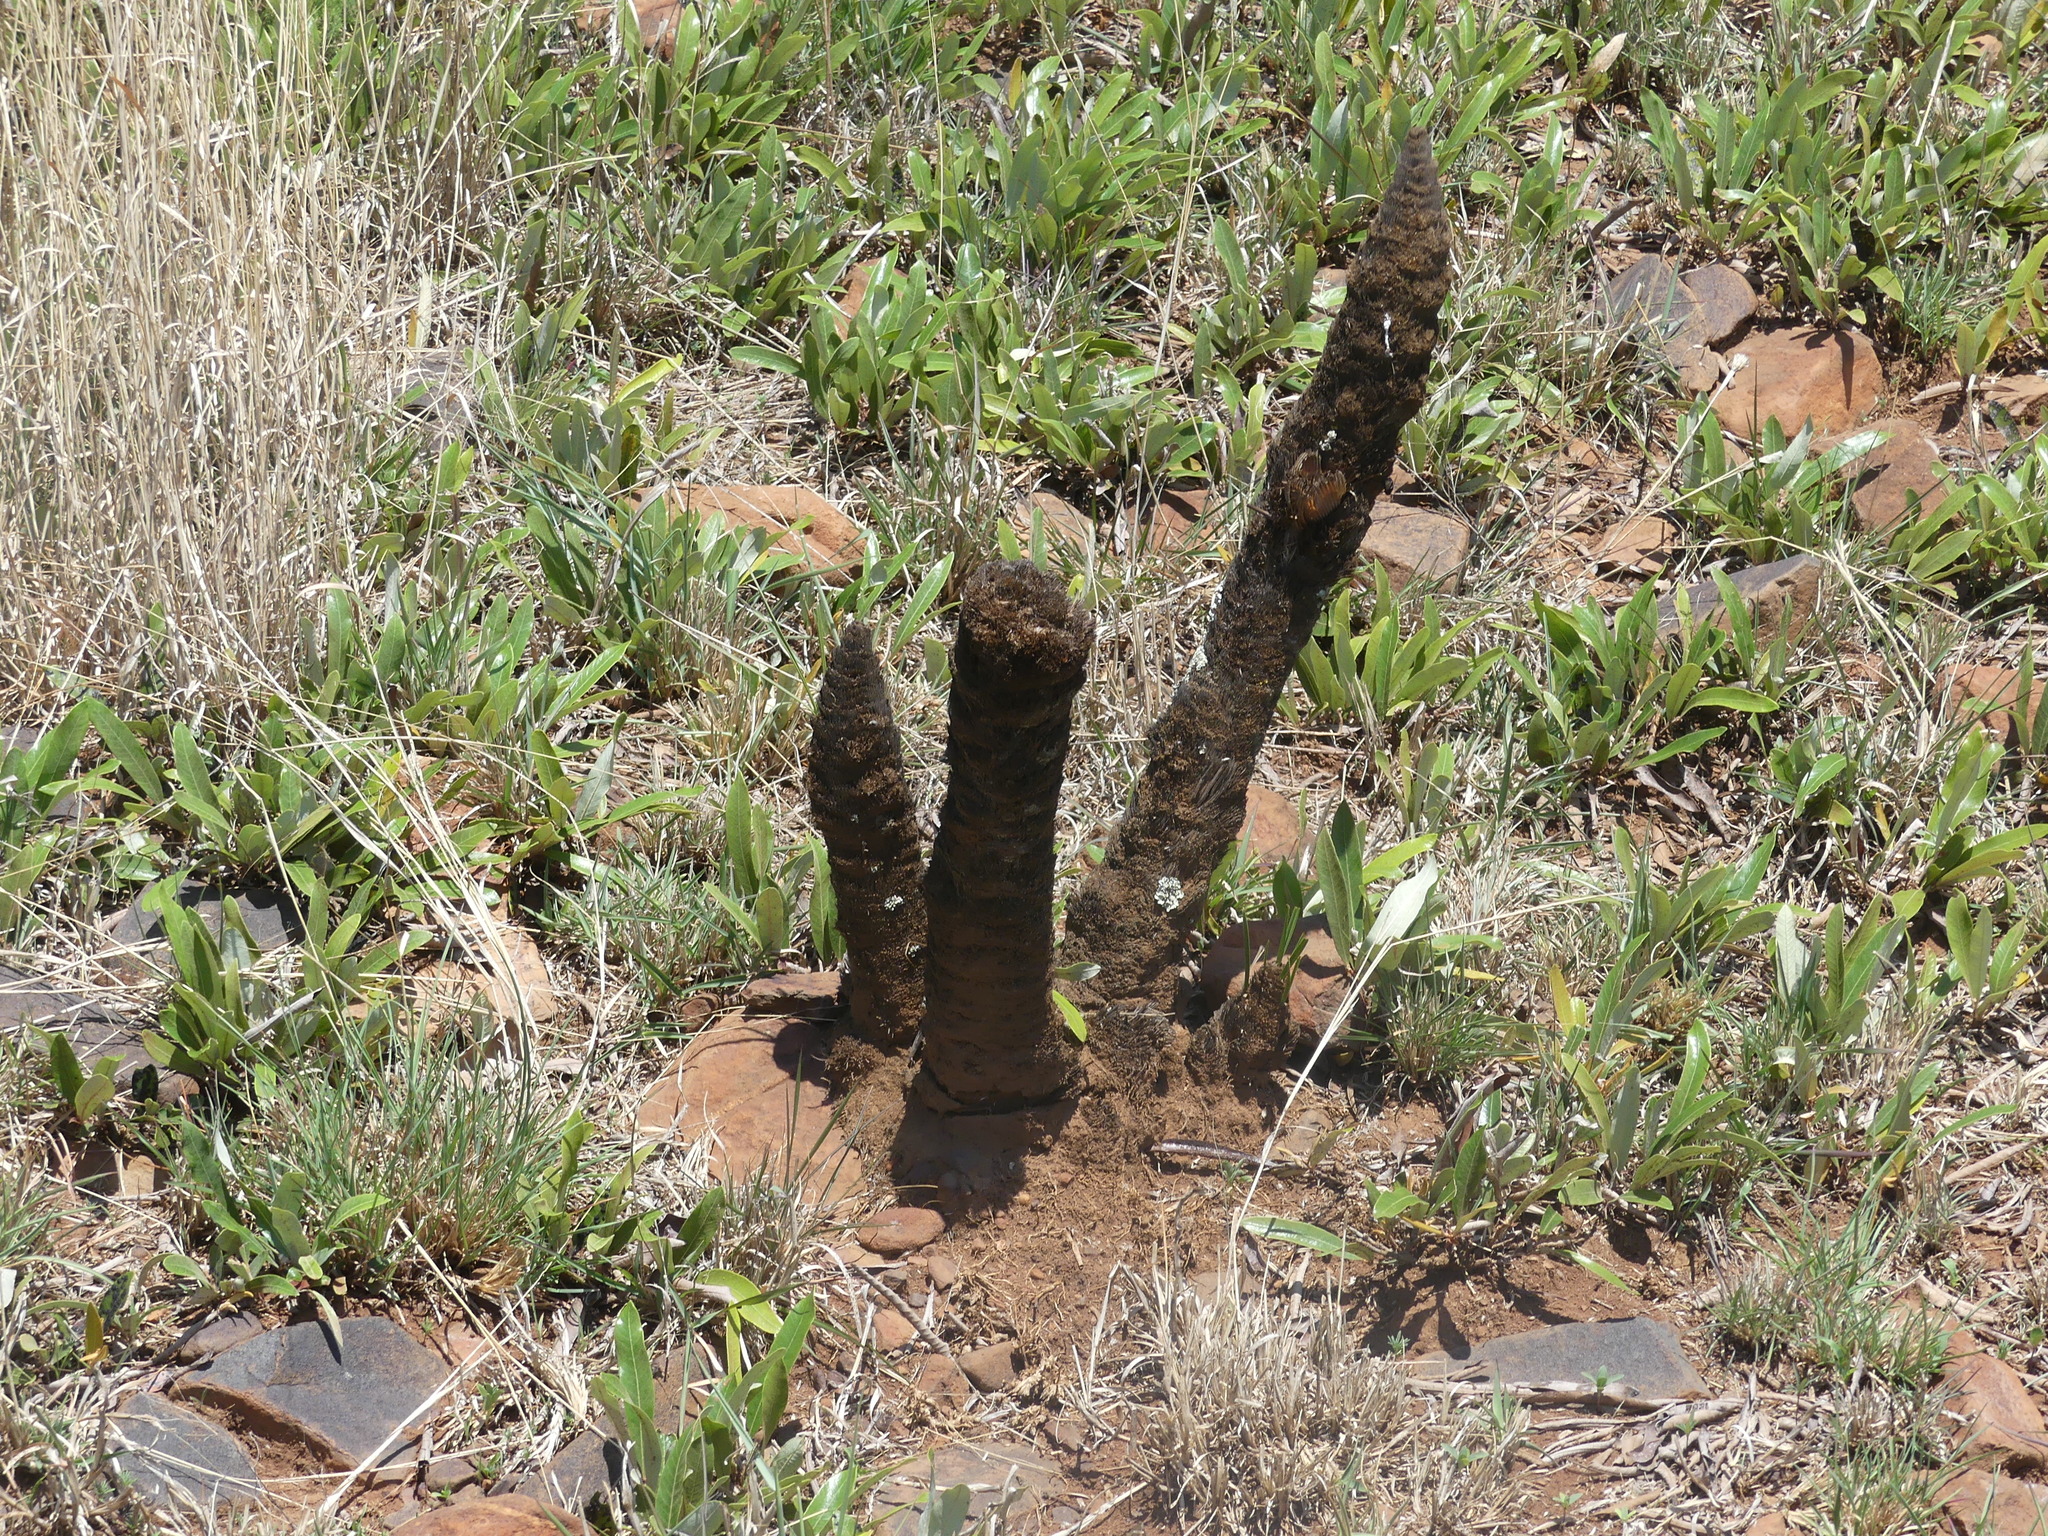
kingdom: Plantae
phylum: Tracheophyta
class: Liliopsida
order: Pandanales
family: Velloziaceae
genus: Xerophyta
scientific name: Xerophyta retinervis
